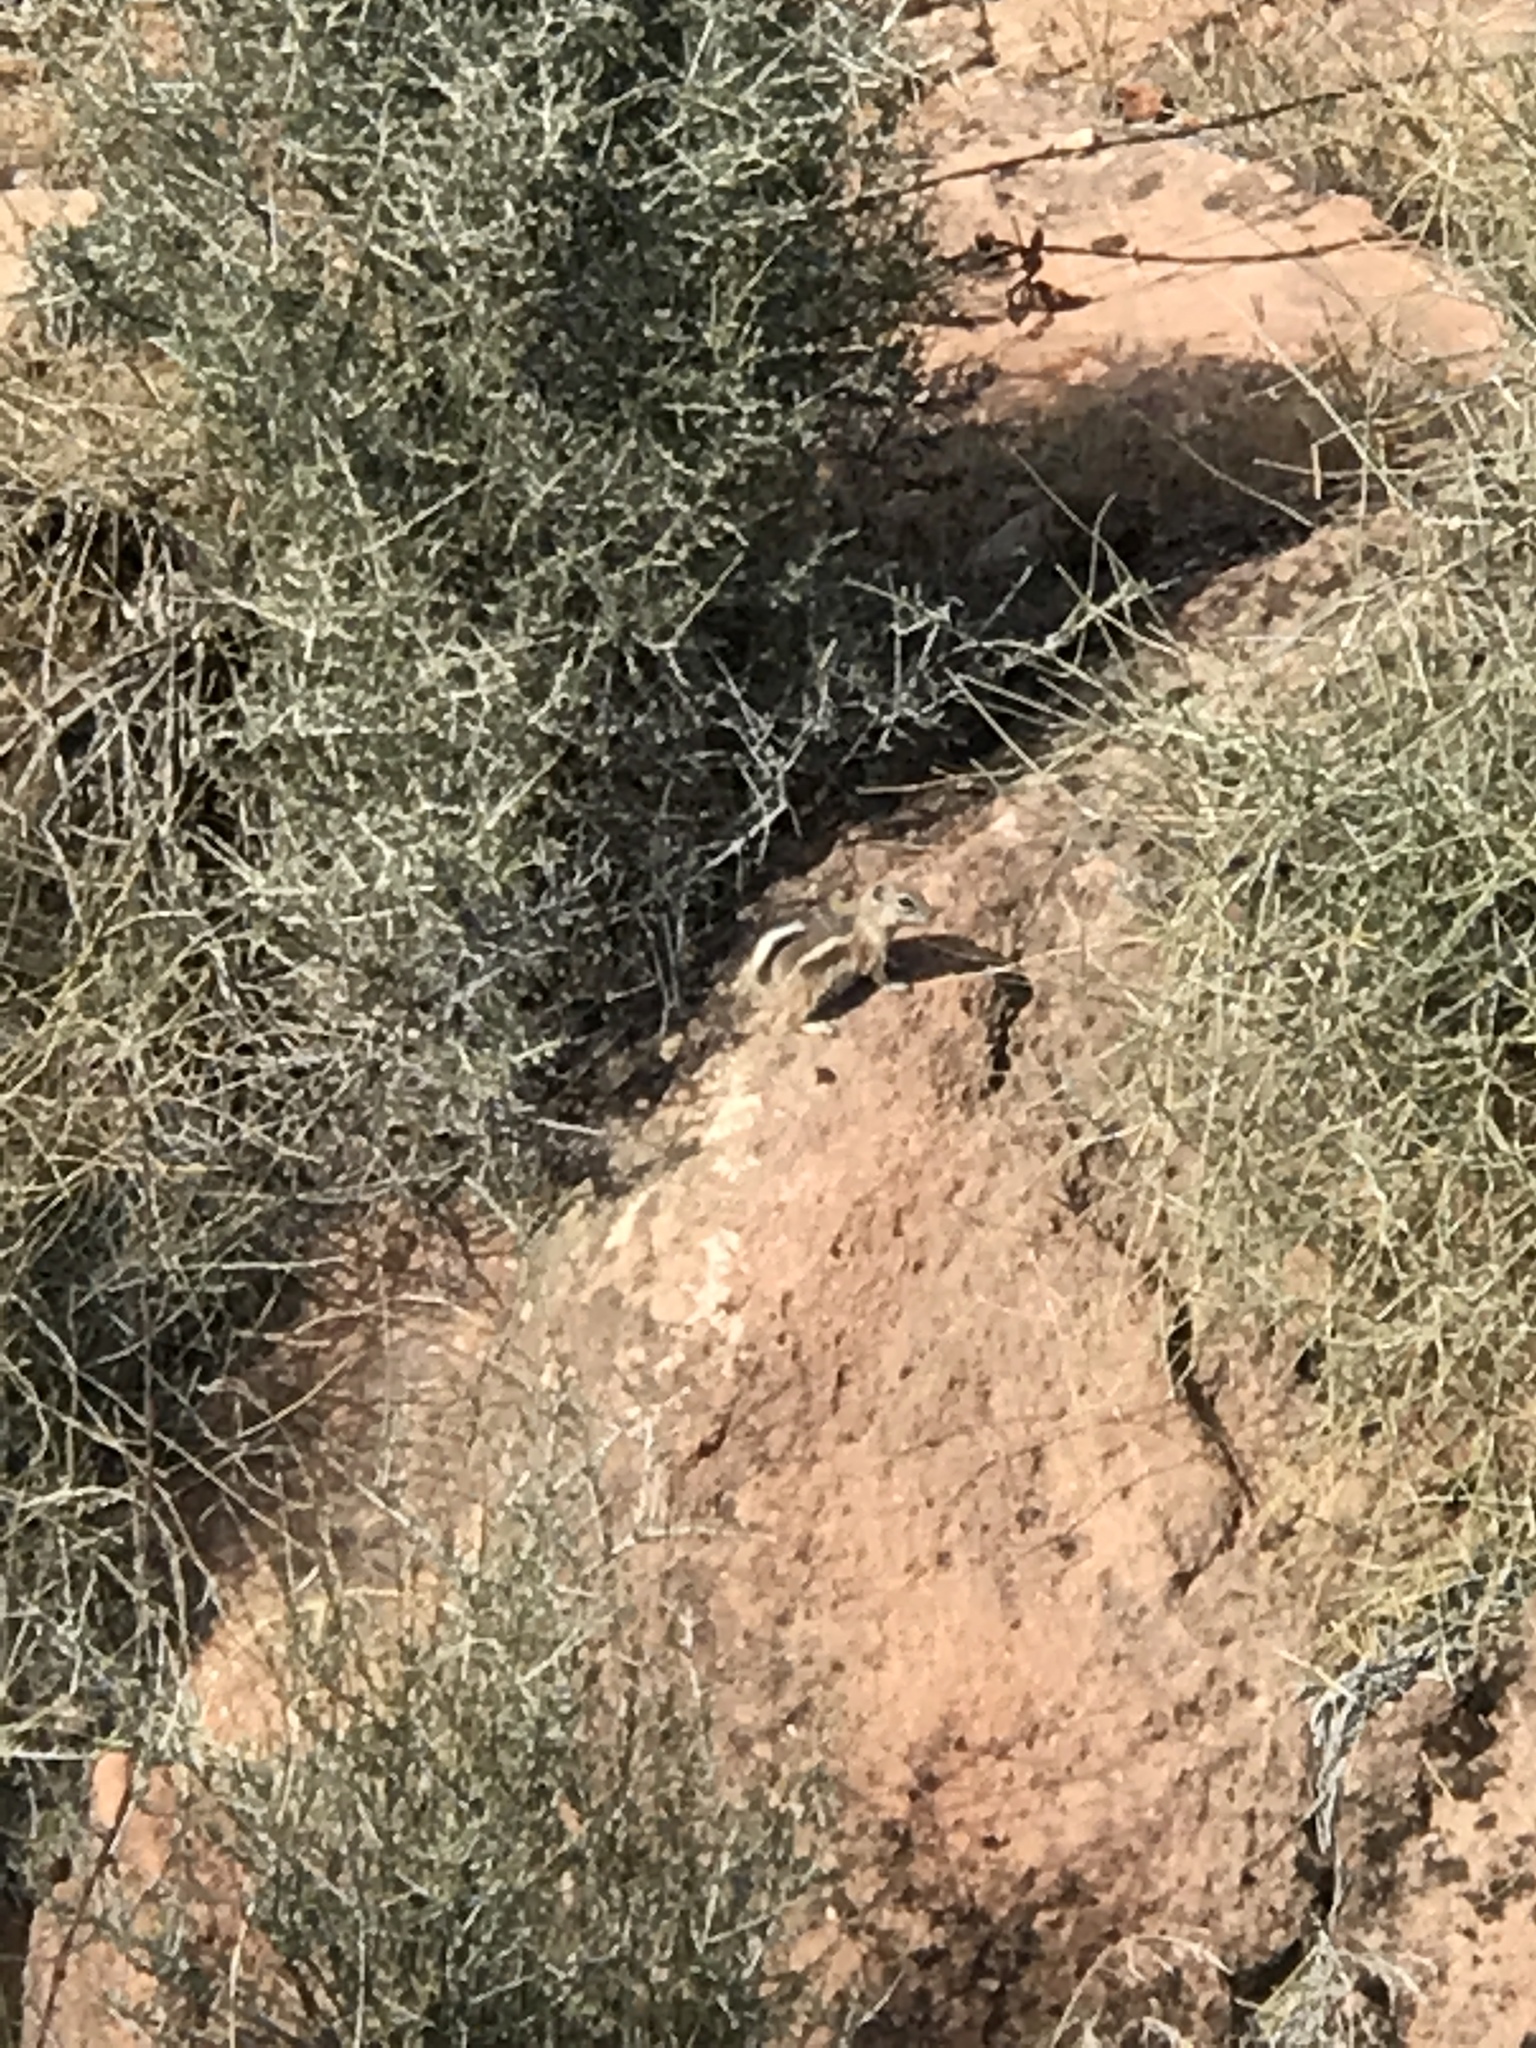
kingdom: Animalia
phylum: Chordata
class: Mammalia
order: Rodentia
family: Sciuridae
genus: Ammospermophilus
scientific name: Ammospermophilus leucurus
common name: White-tailed antelope squirrel
